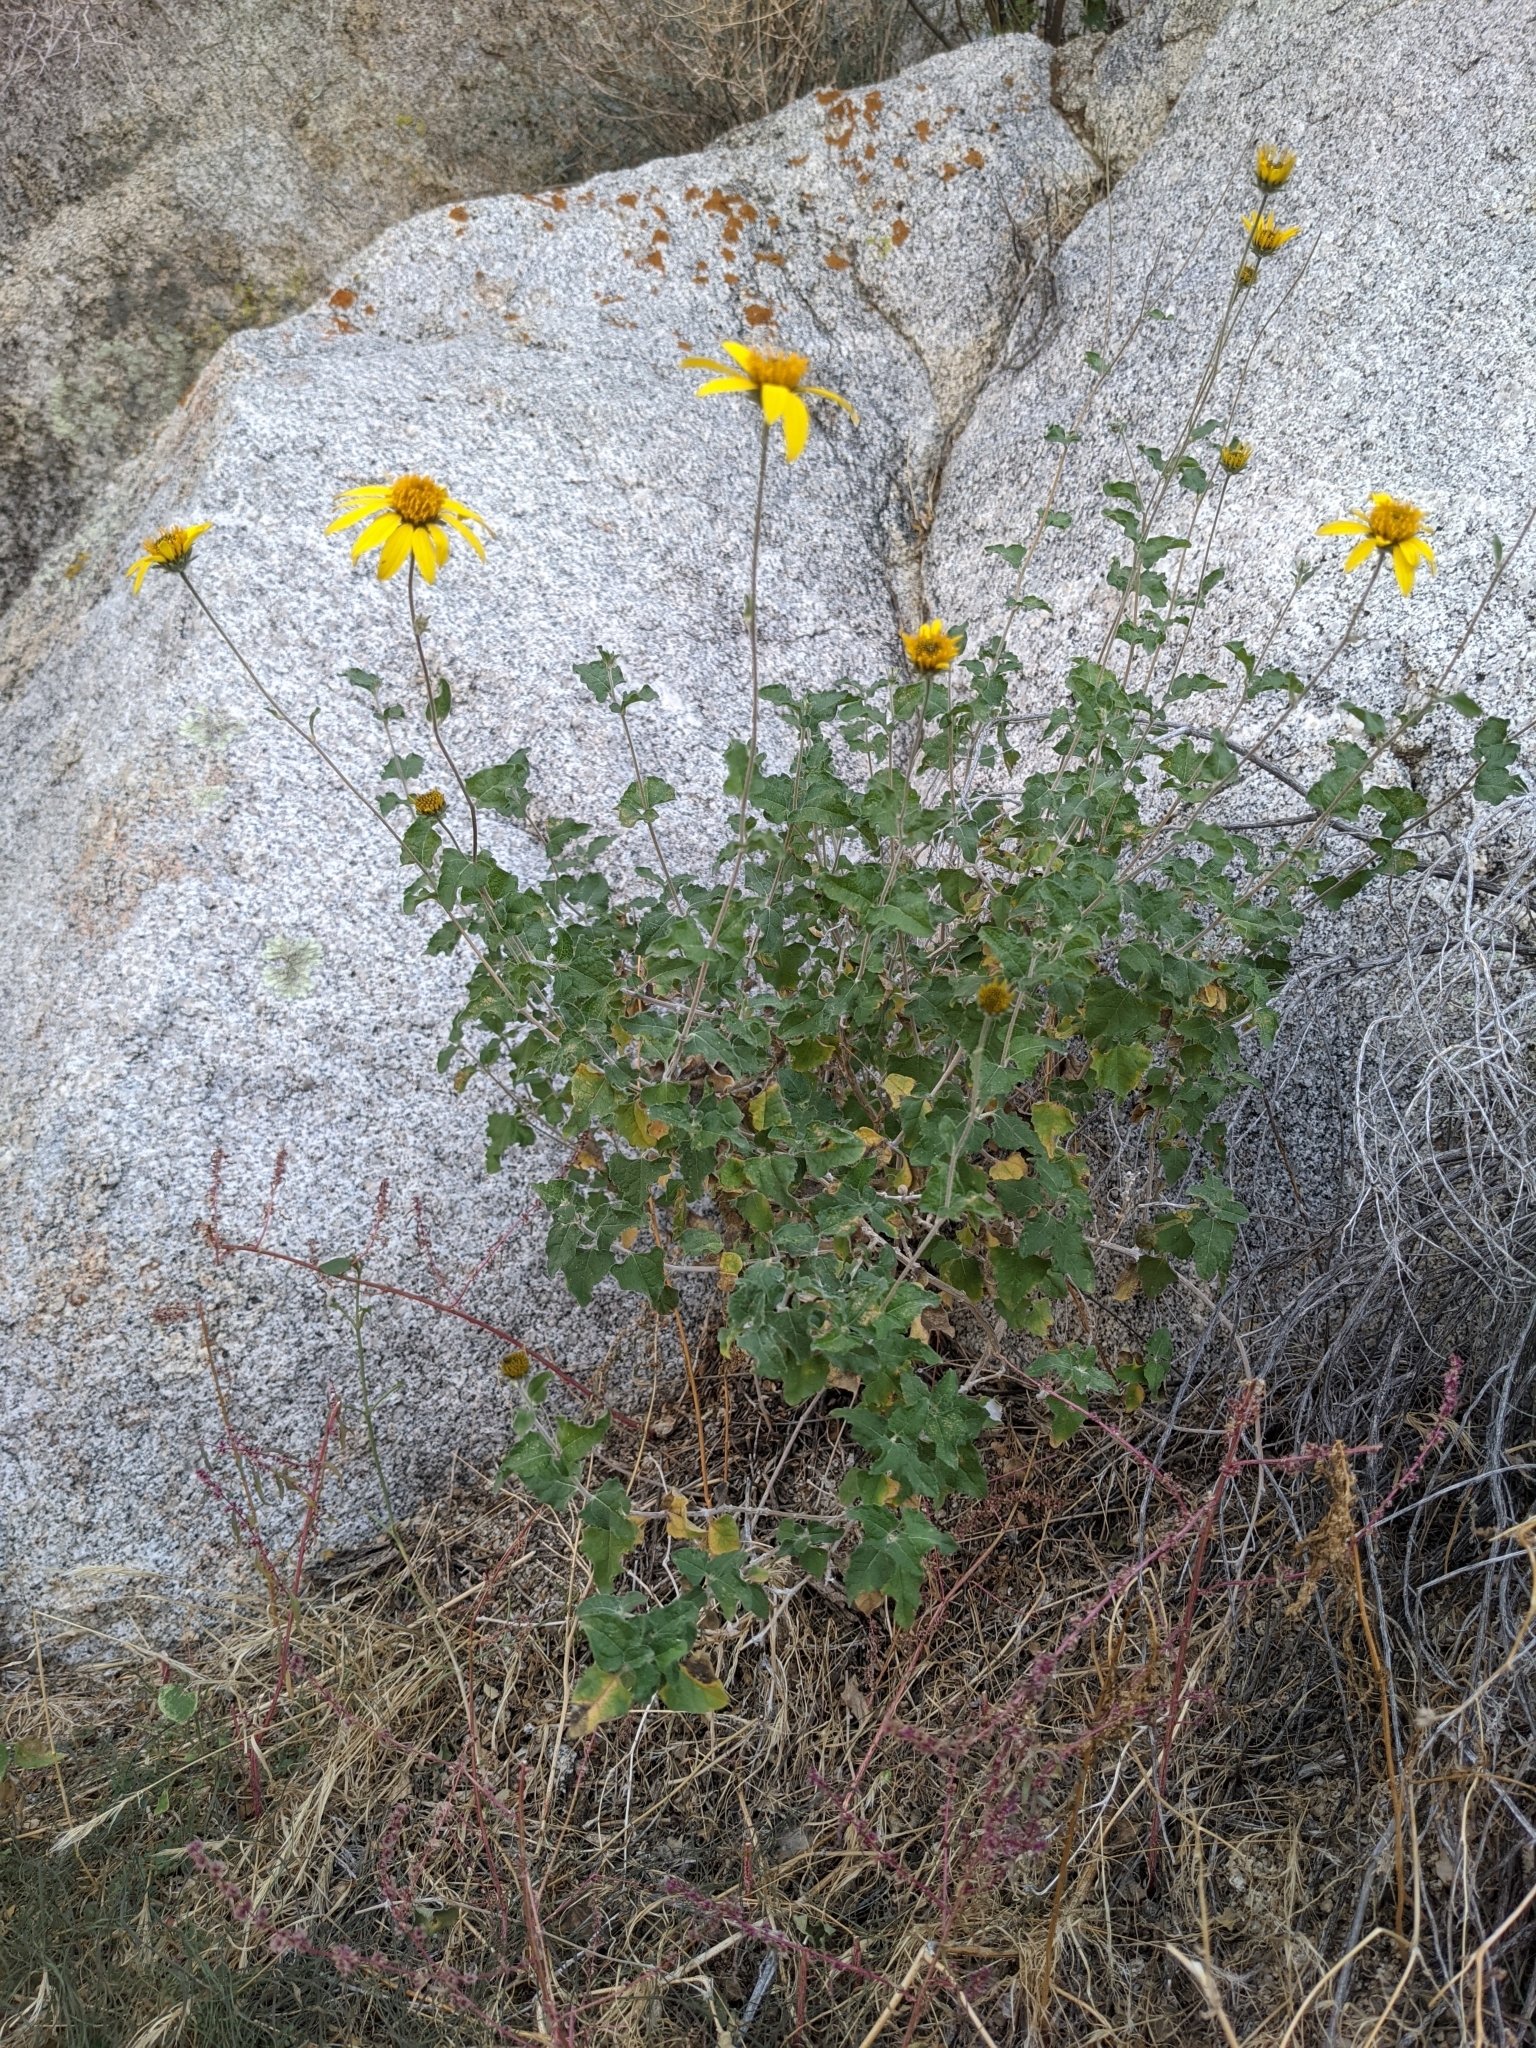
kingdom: Plantae
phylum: Tracheophyta
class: Magnoliopsida
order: Asterales
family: Asteraceae
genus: Bahiopsis
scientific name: Bahiopsis parishii
